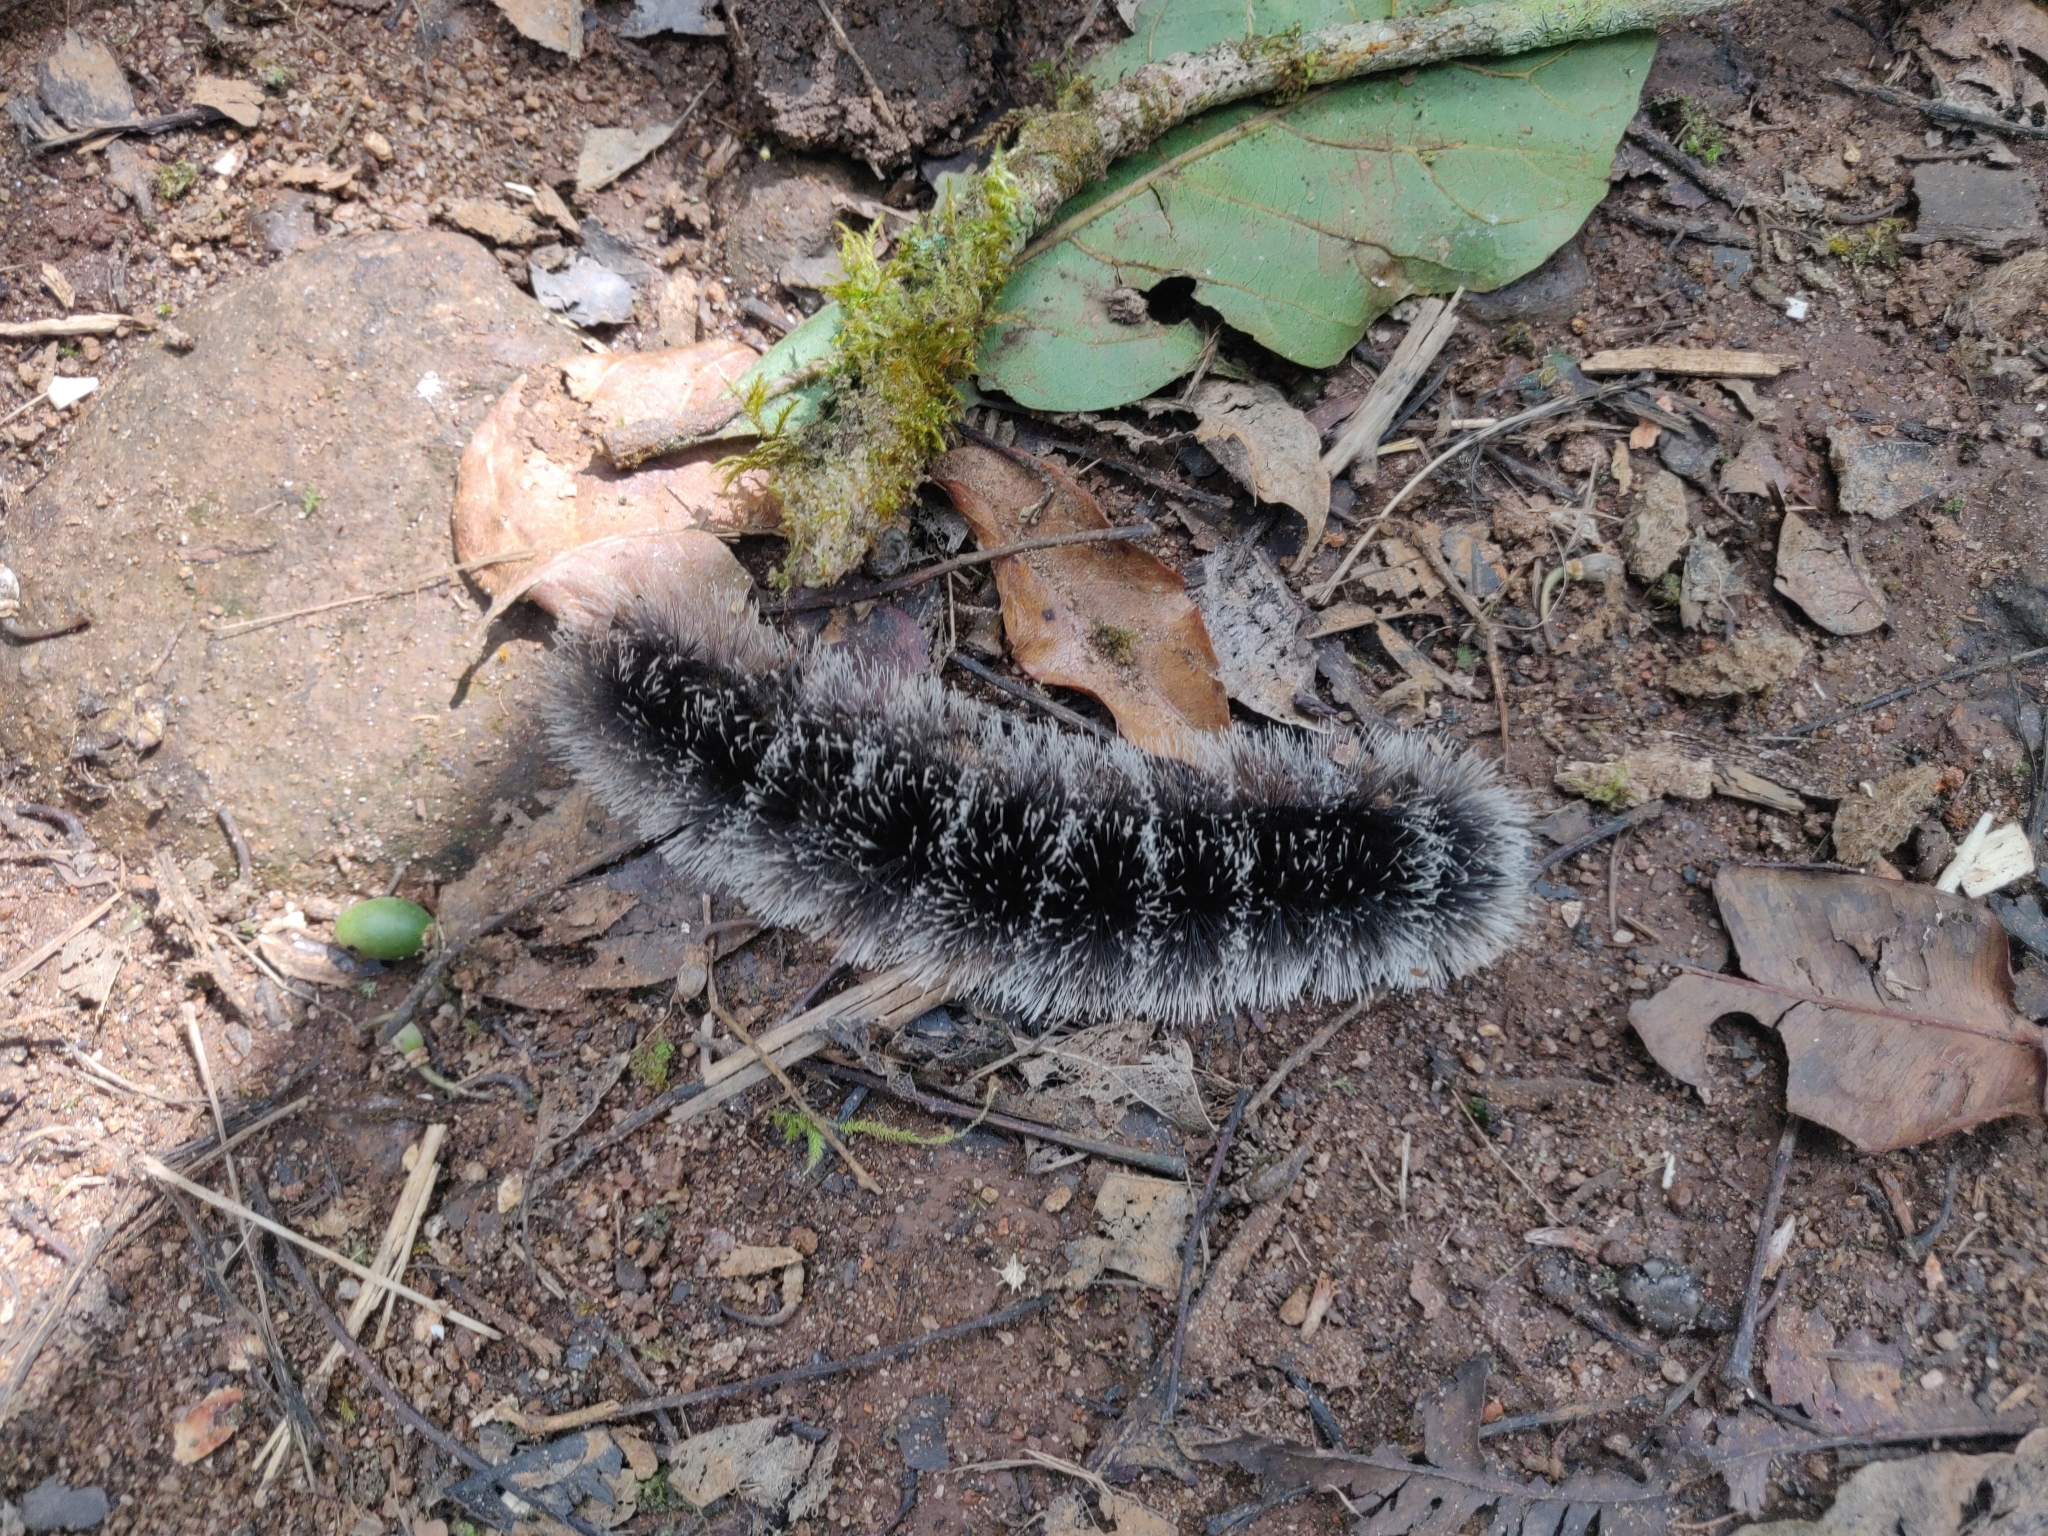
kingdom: Animalia
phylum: Arthropoda
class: Insecta
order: Lepidoptera
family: Erebidae
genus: Macrobrochis
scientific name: Macrobrochis gigas
